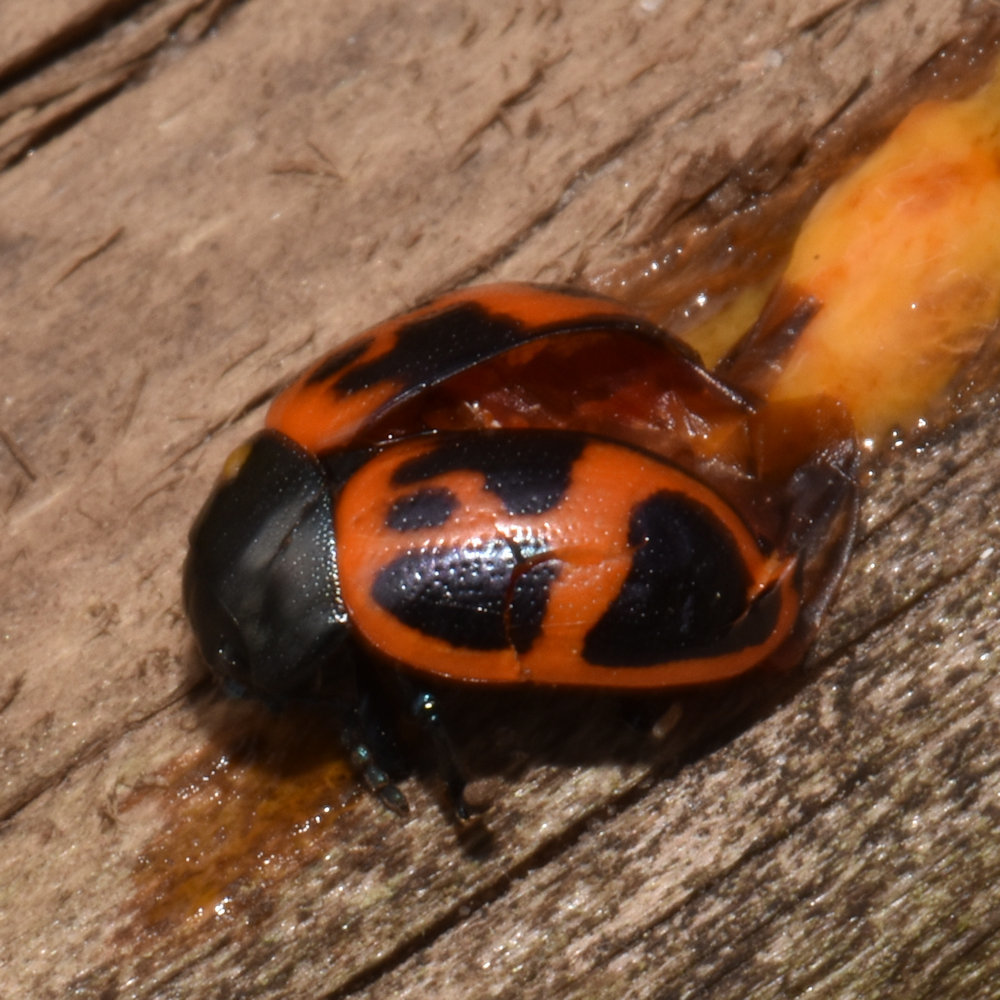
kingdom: Animalia
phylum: Arthropoda
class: Insecta
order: Coleoptera
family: Chrysomelidae
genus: Labidomera
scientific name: Labidomera clivicollis
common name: Swamp milkweed leaf beetle
